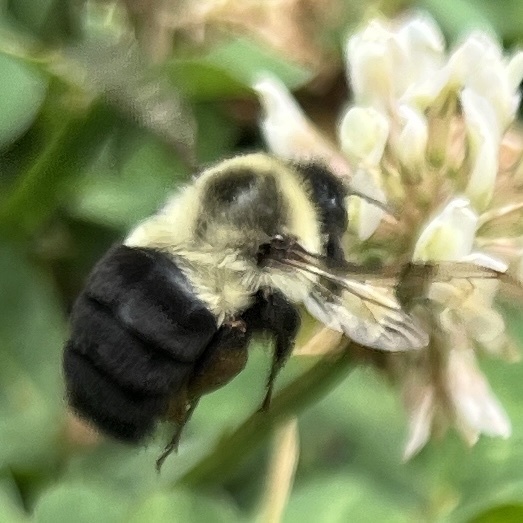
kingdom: Animalia
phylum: Arthropoda
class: Insecta
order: Hymenoptera
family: Apidae
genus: Bombus
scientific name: Bombus impatiens
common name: Common eastern bumble bee
